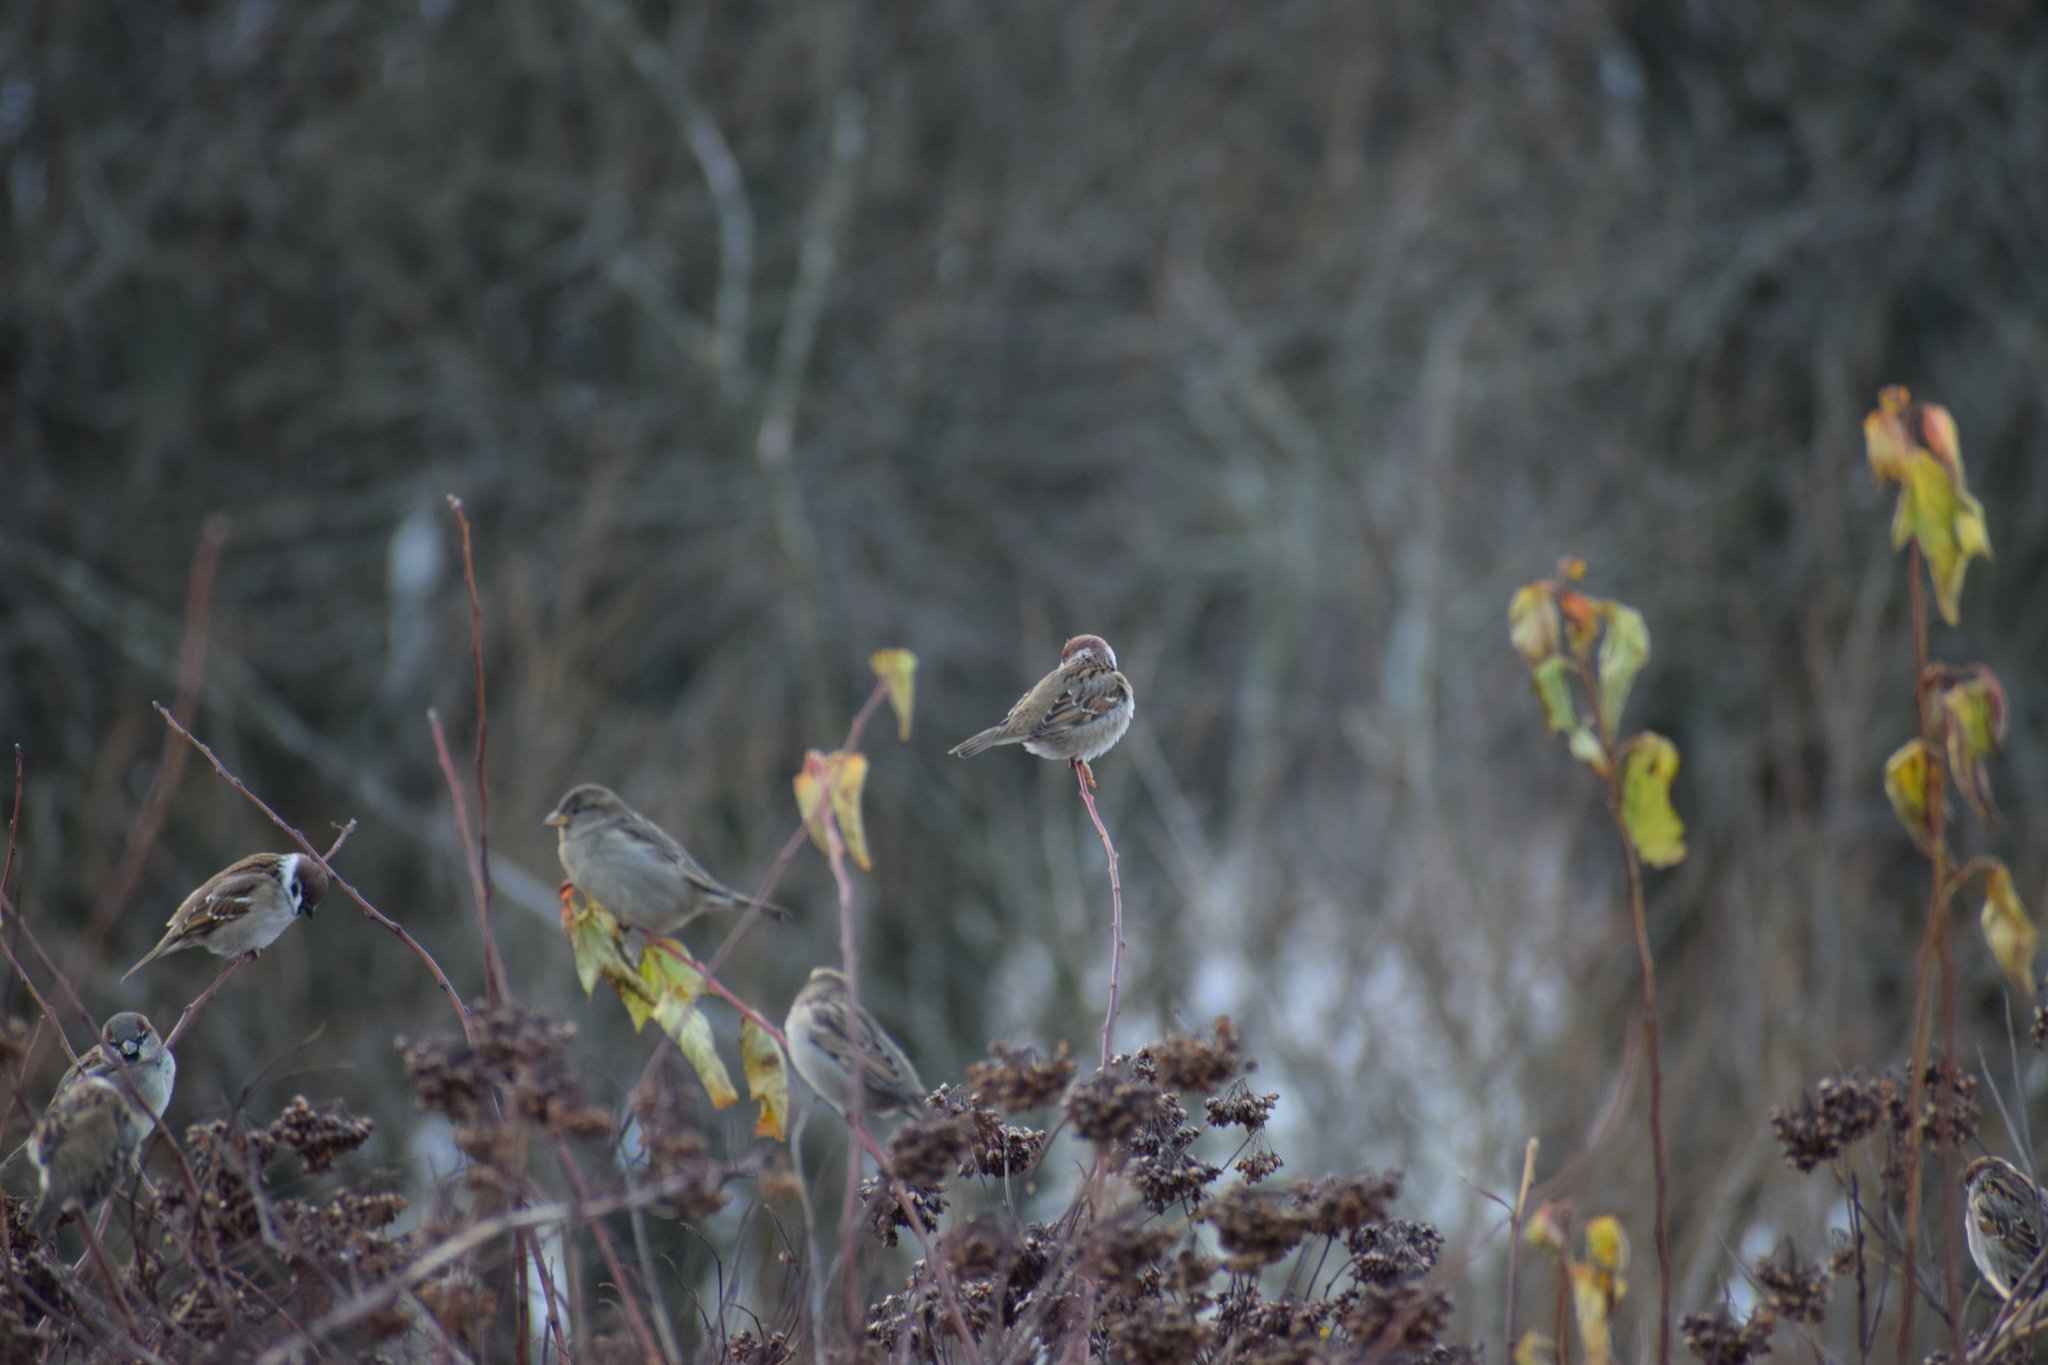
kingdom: Animalia
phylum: Chordata
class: Aves
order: Passeriformes
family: Passeridae
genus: Passer
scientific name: Passer montanus
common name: Eurasian tree sparrow
